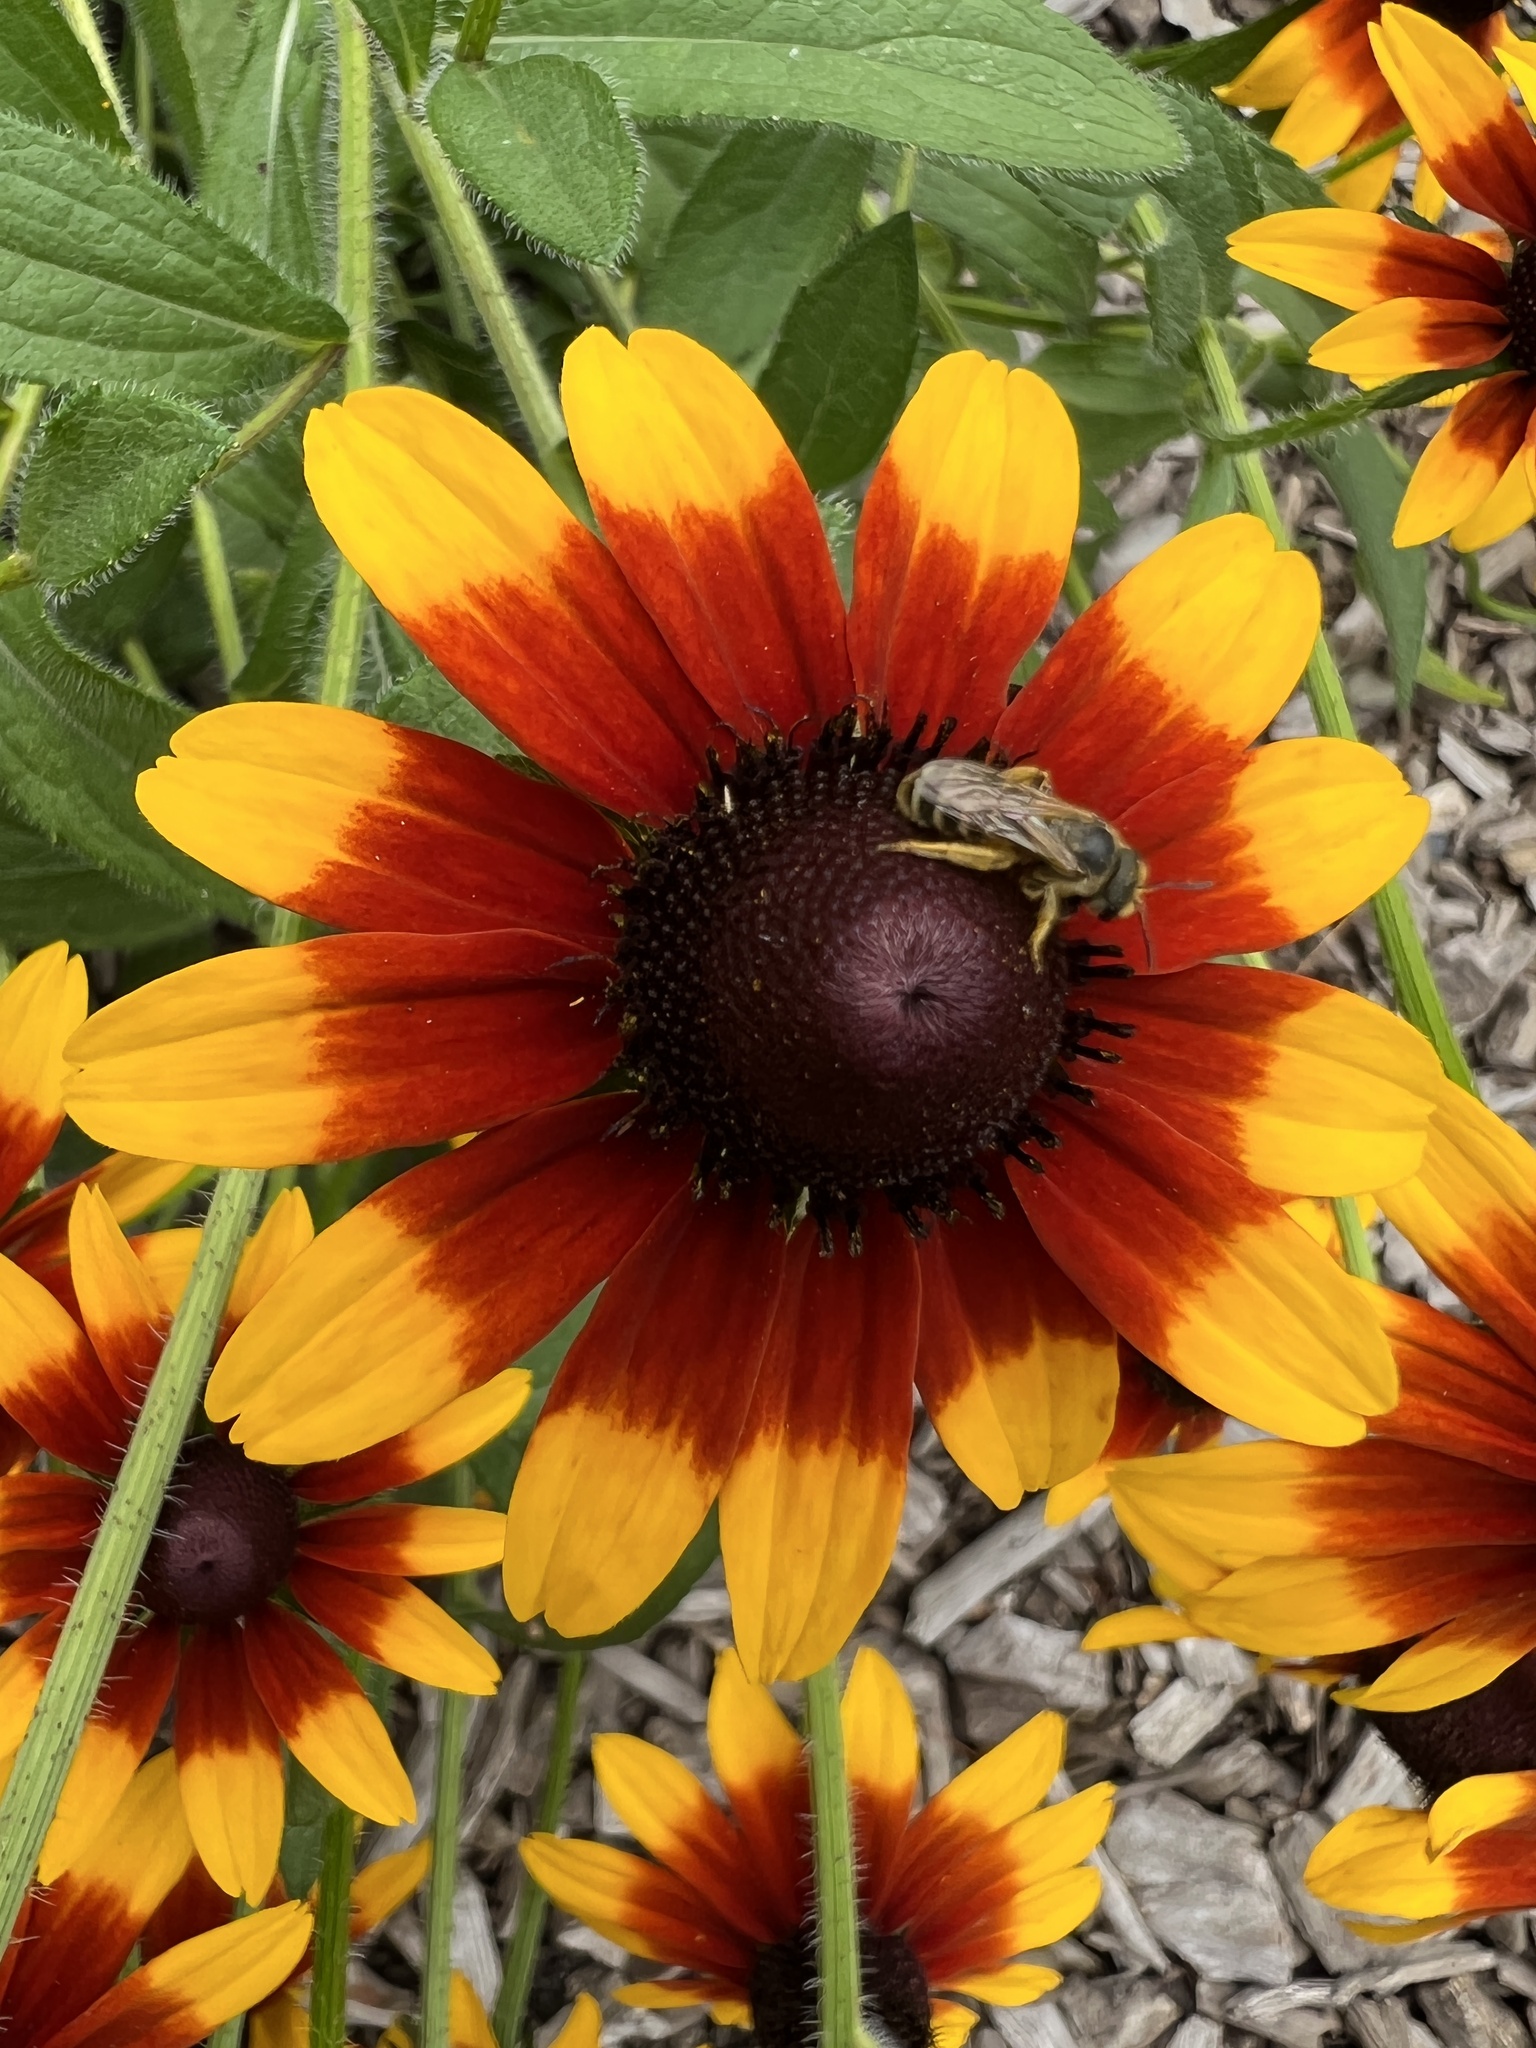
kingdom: Animalia
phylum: Arthropoda
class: Insecta
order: Hymenoptera
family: Halictidae
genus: Halictus
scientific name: Halictus ligatus
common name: Ligated furrow bee
